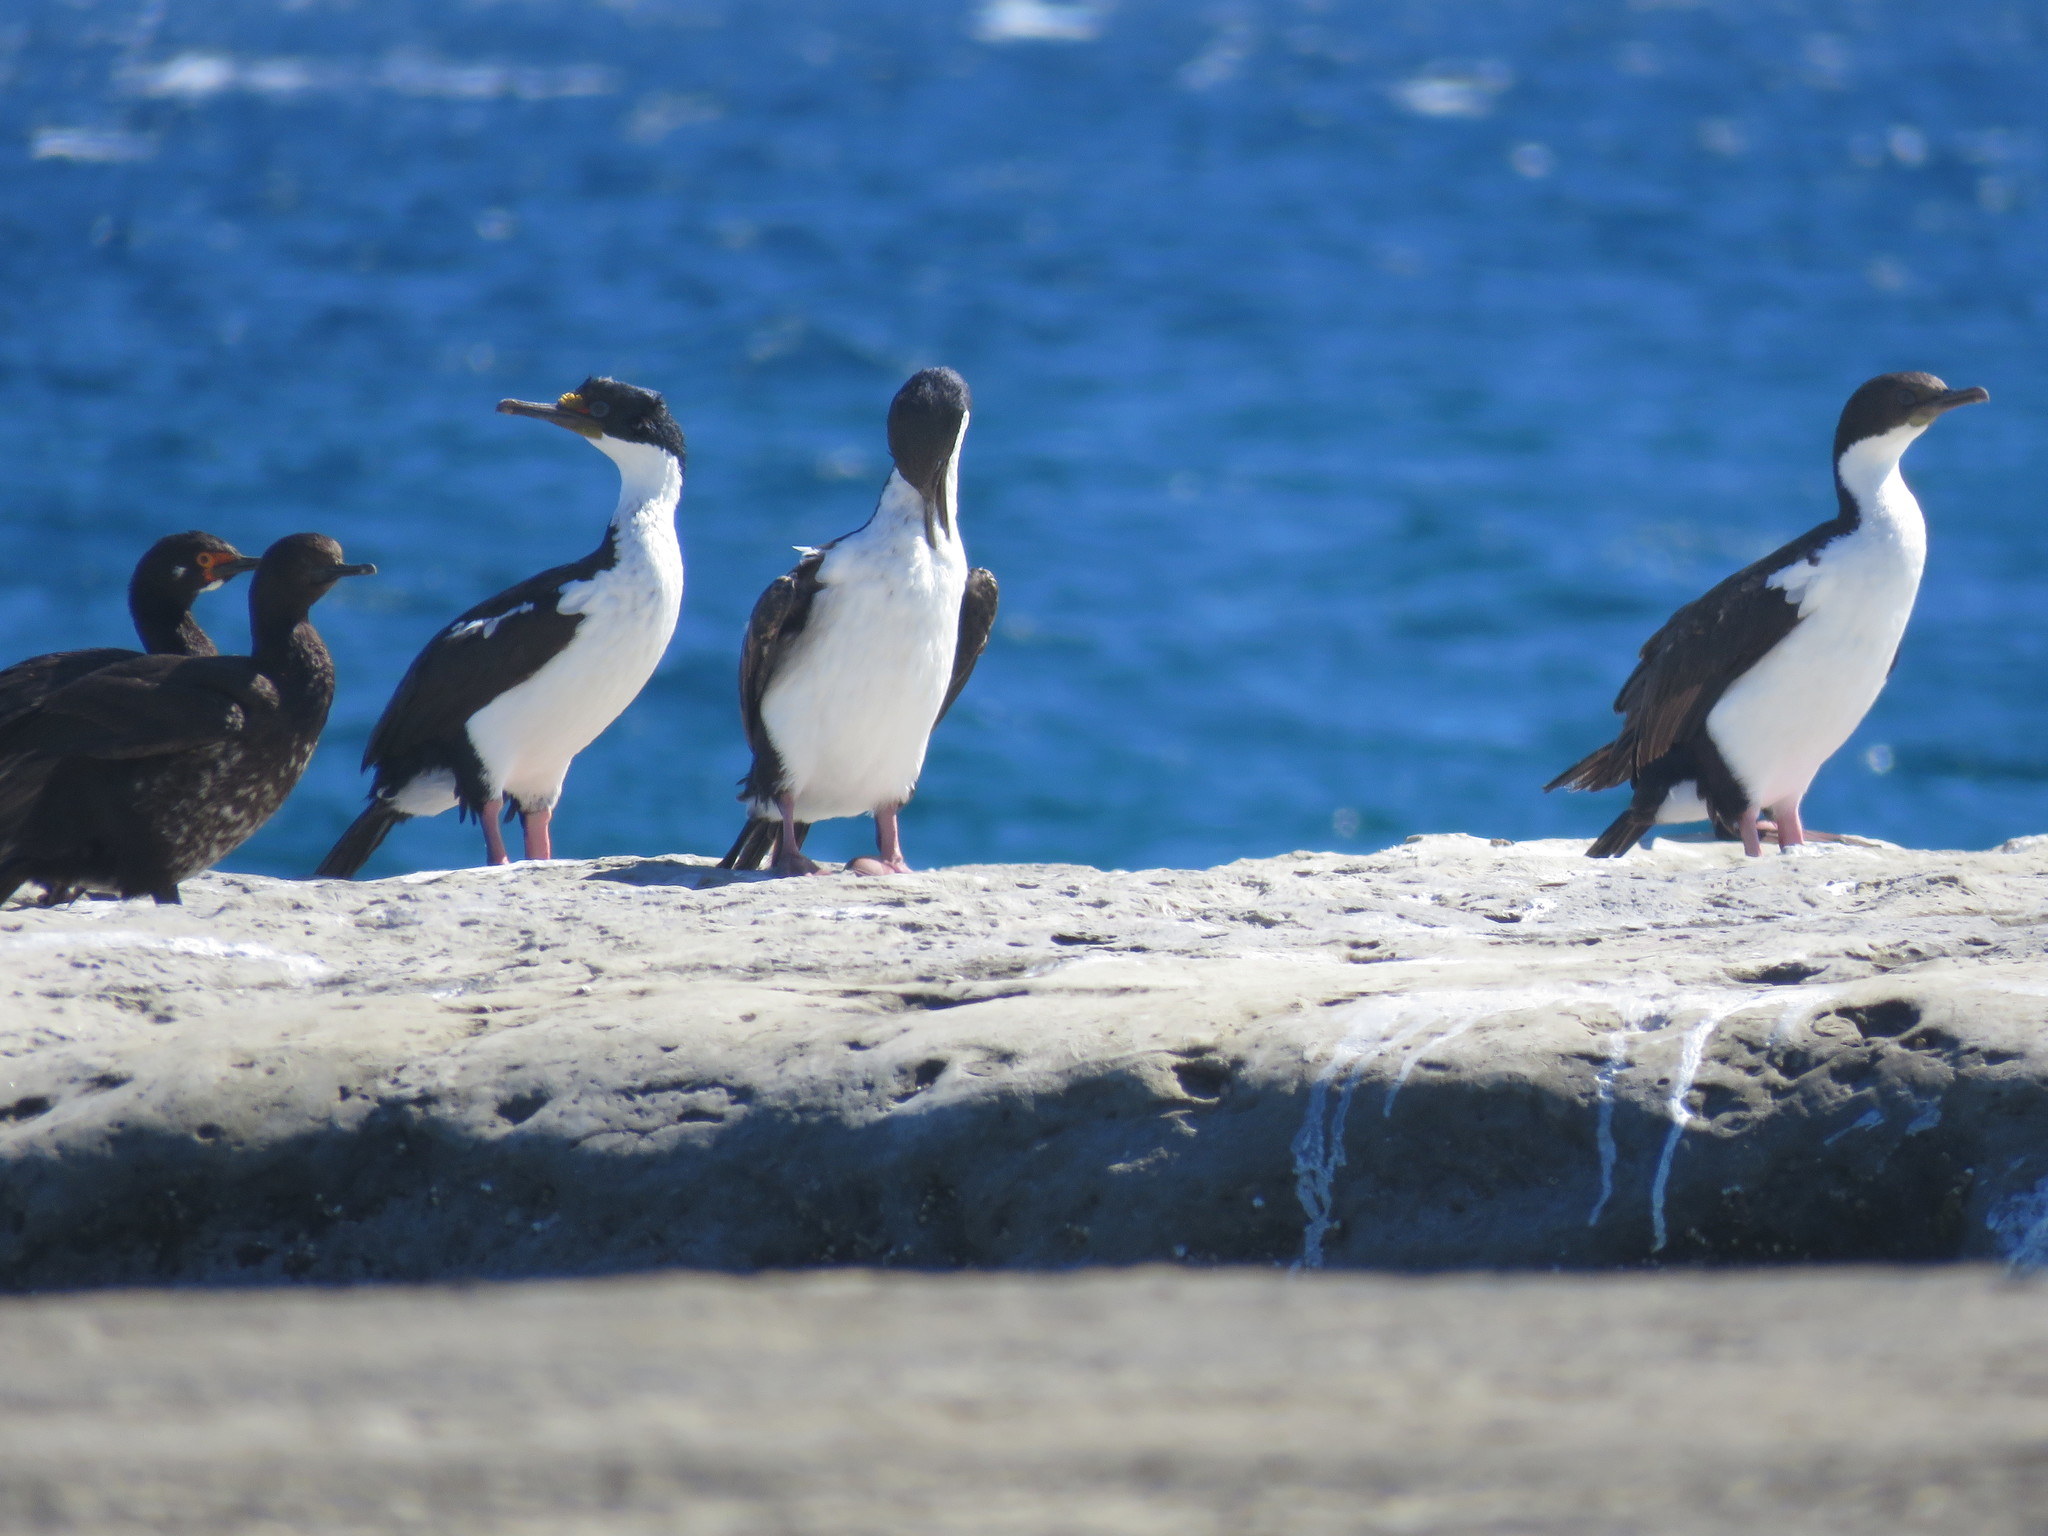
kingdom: Animalia
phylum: Chordata
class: Aves
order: Suliformes
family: Phalacrocoracidae
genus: Leucocarbo
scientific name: Leucocarbo atriceps
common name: Imperial shag
